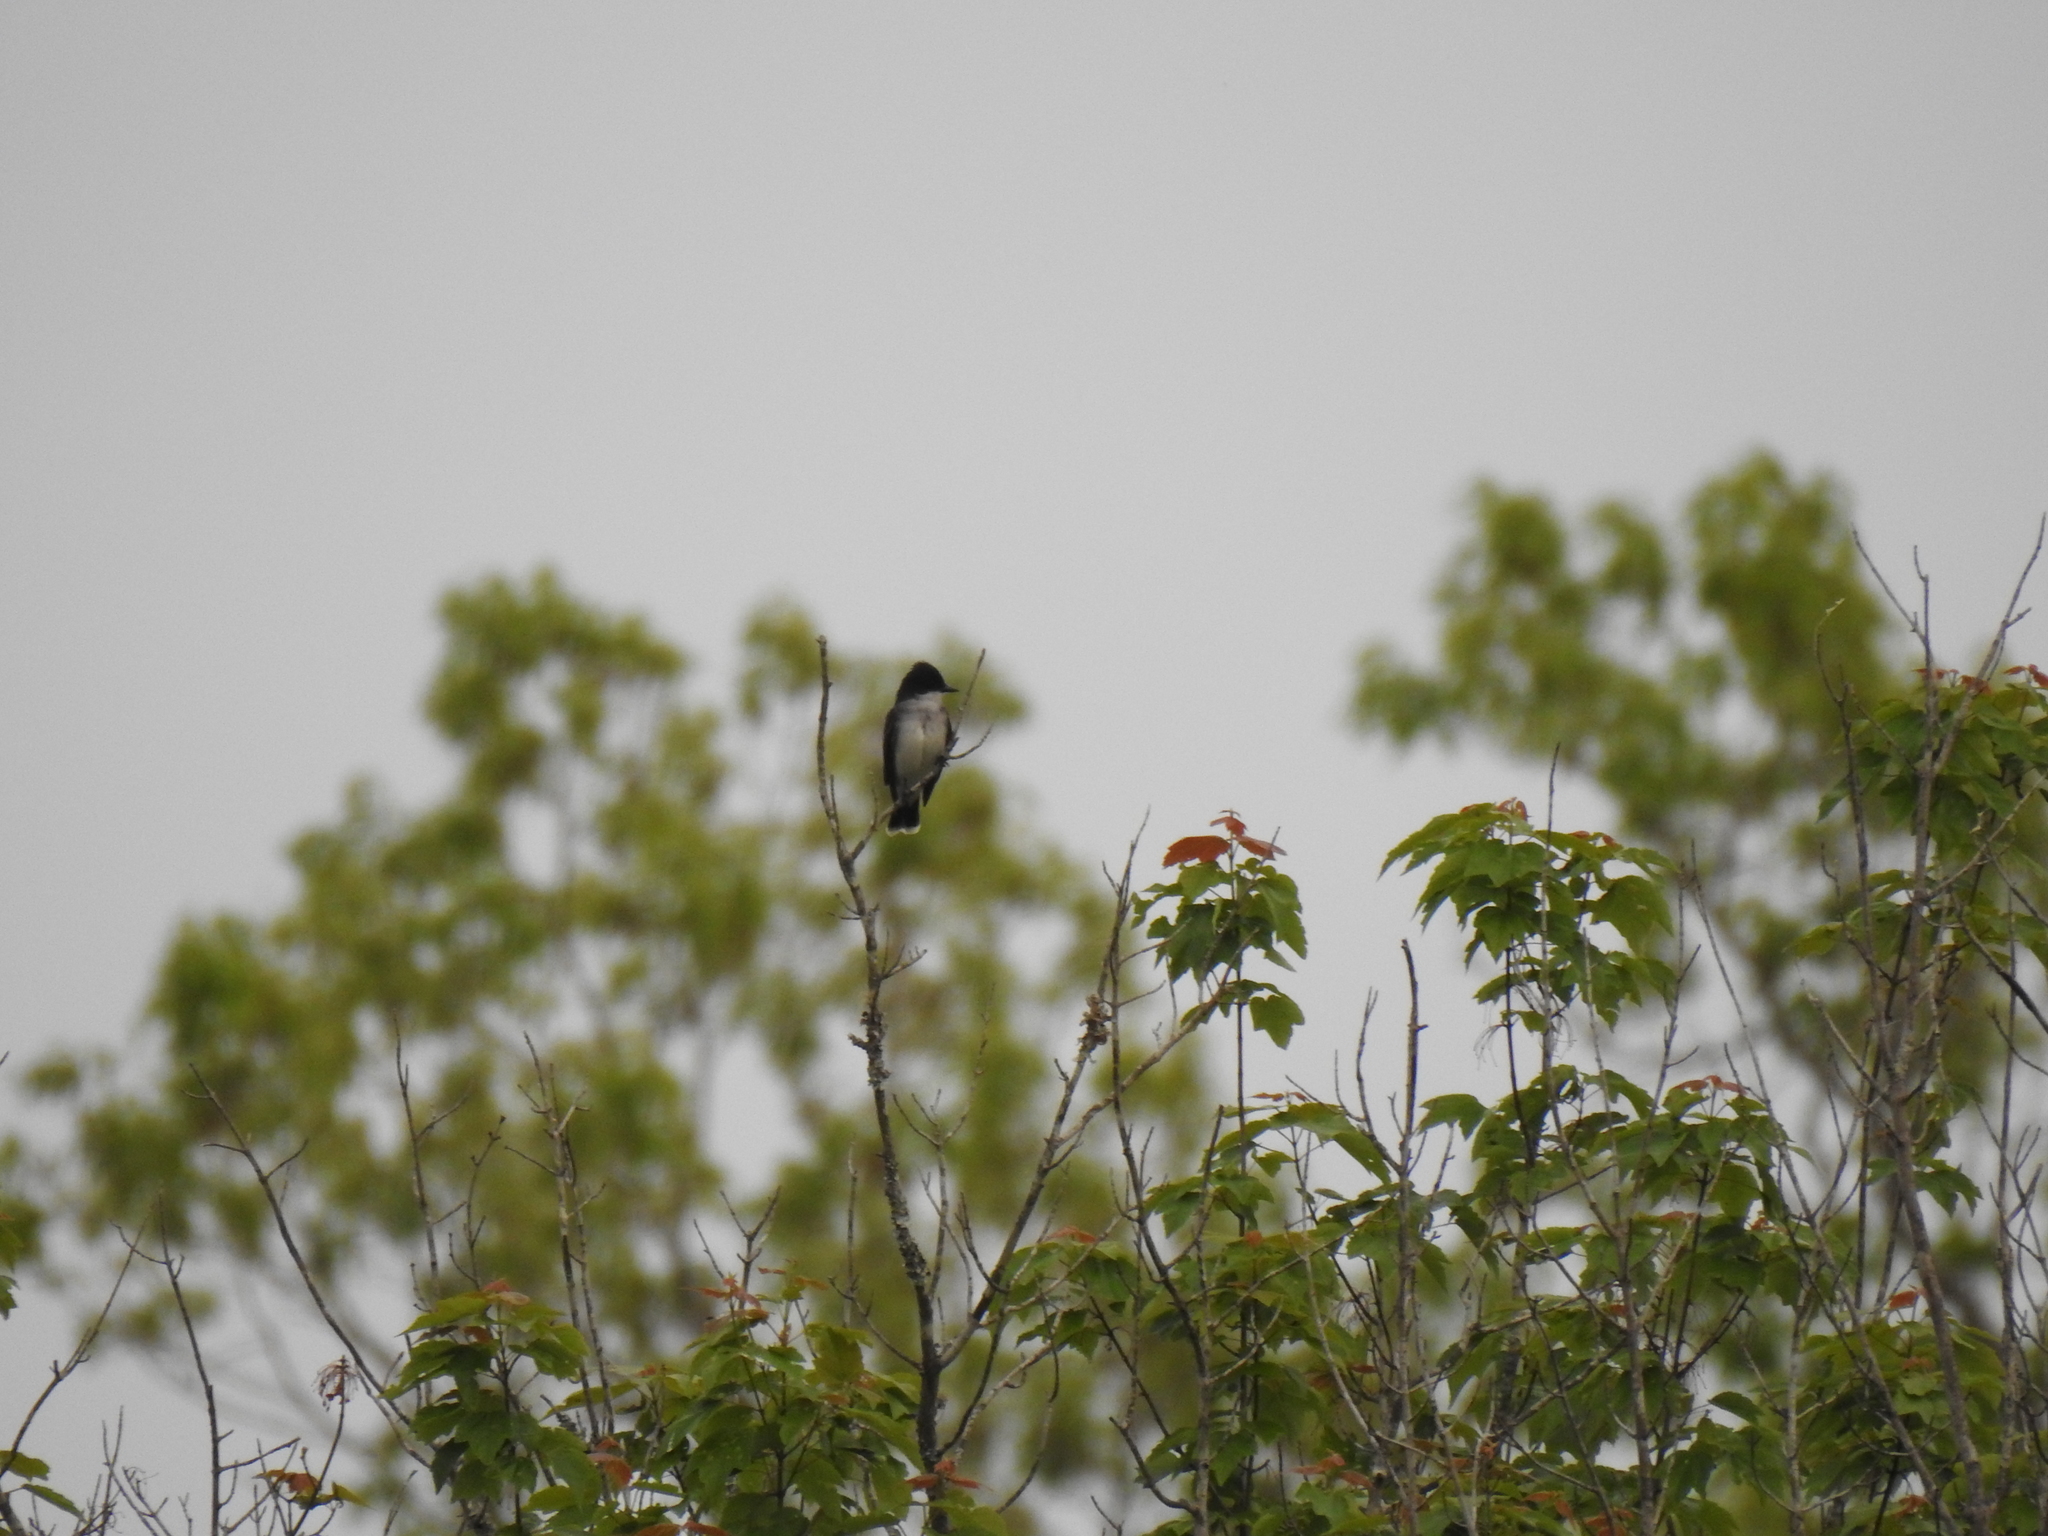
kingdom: Animalia
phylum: Chordata
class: Aves
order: Passeriformes
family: Tyrannidae
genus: Tyrannus
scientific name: Tyrannus tyrannus
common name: Eastern kingbird
